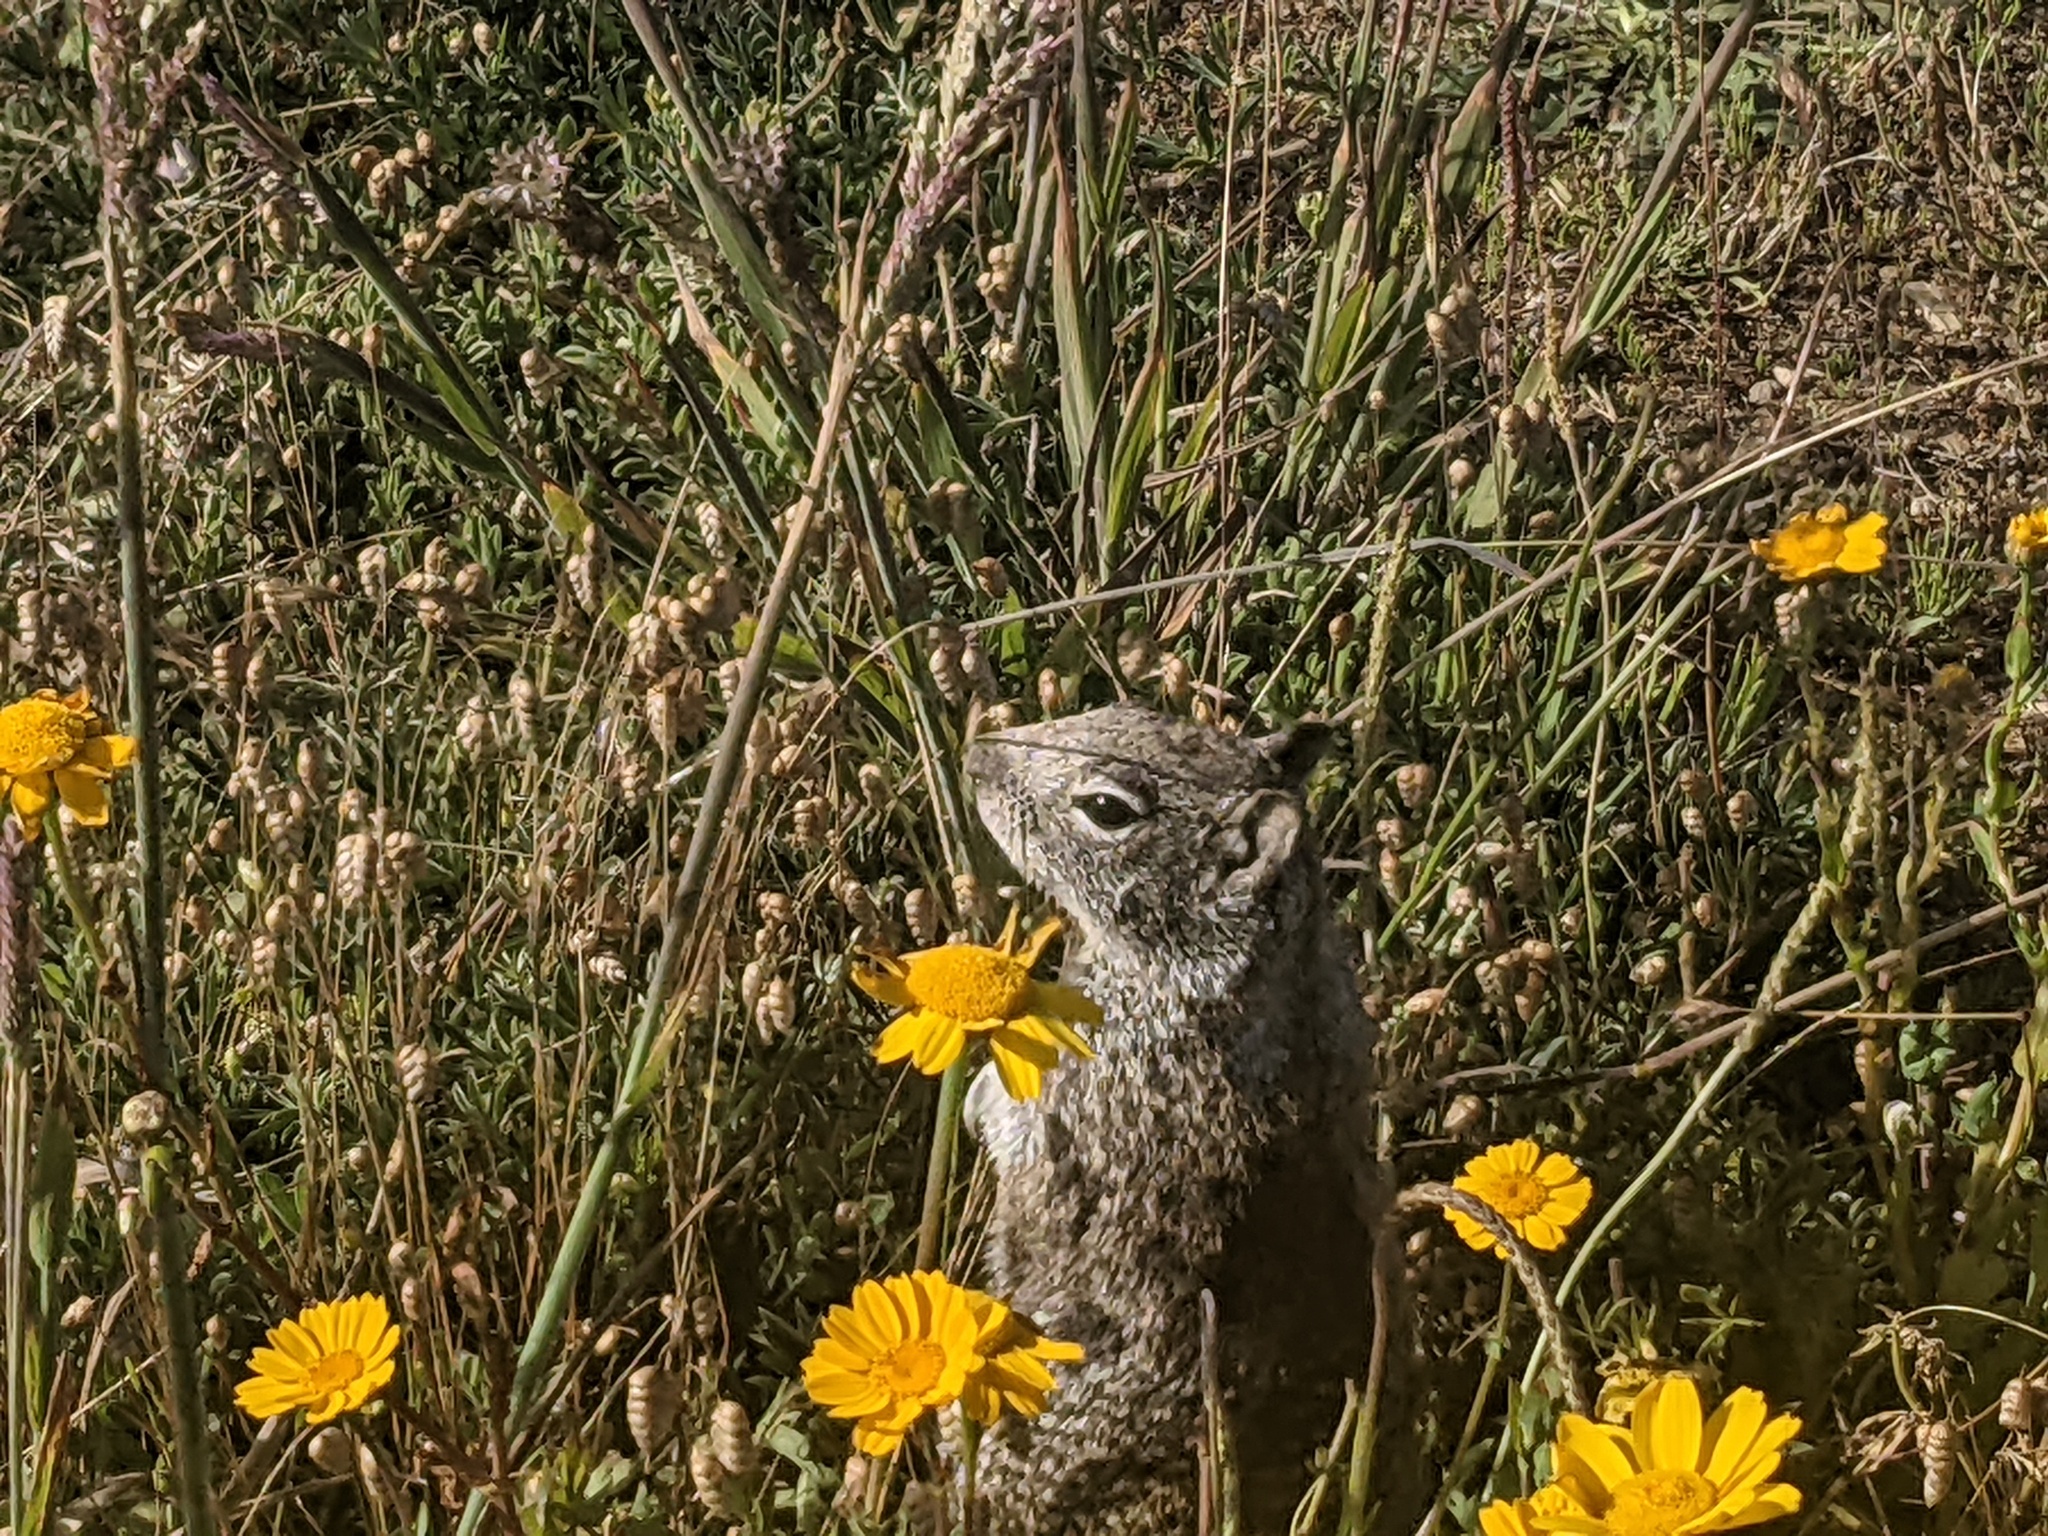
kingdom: Animalia
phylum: Chordata
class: Mammalia
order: Rodentia
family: Sciuridae
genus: Otospermophilus
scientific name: Otospermophilus beecheyi
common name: California ground squirrel
